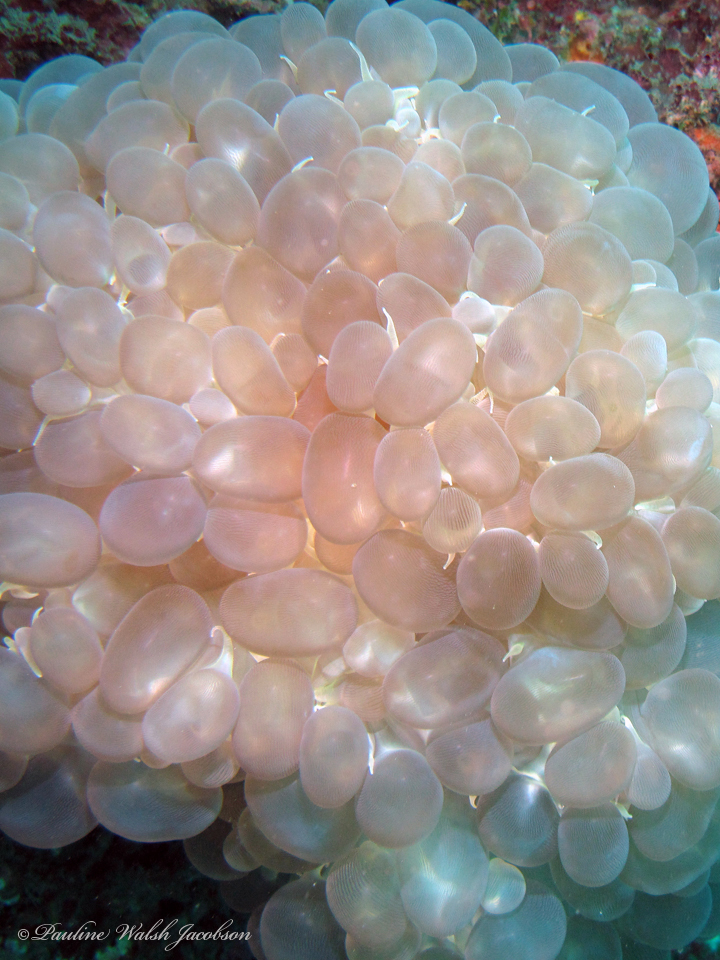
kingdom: Animalia
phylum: Cnidaria
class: Anthozoa
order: Scleractinia
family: Plerogyridae
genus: Plerogyra
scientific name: Plerogyra sinuosa
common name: Bubble coral
